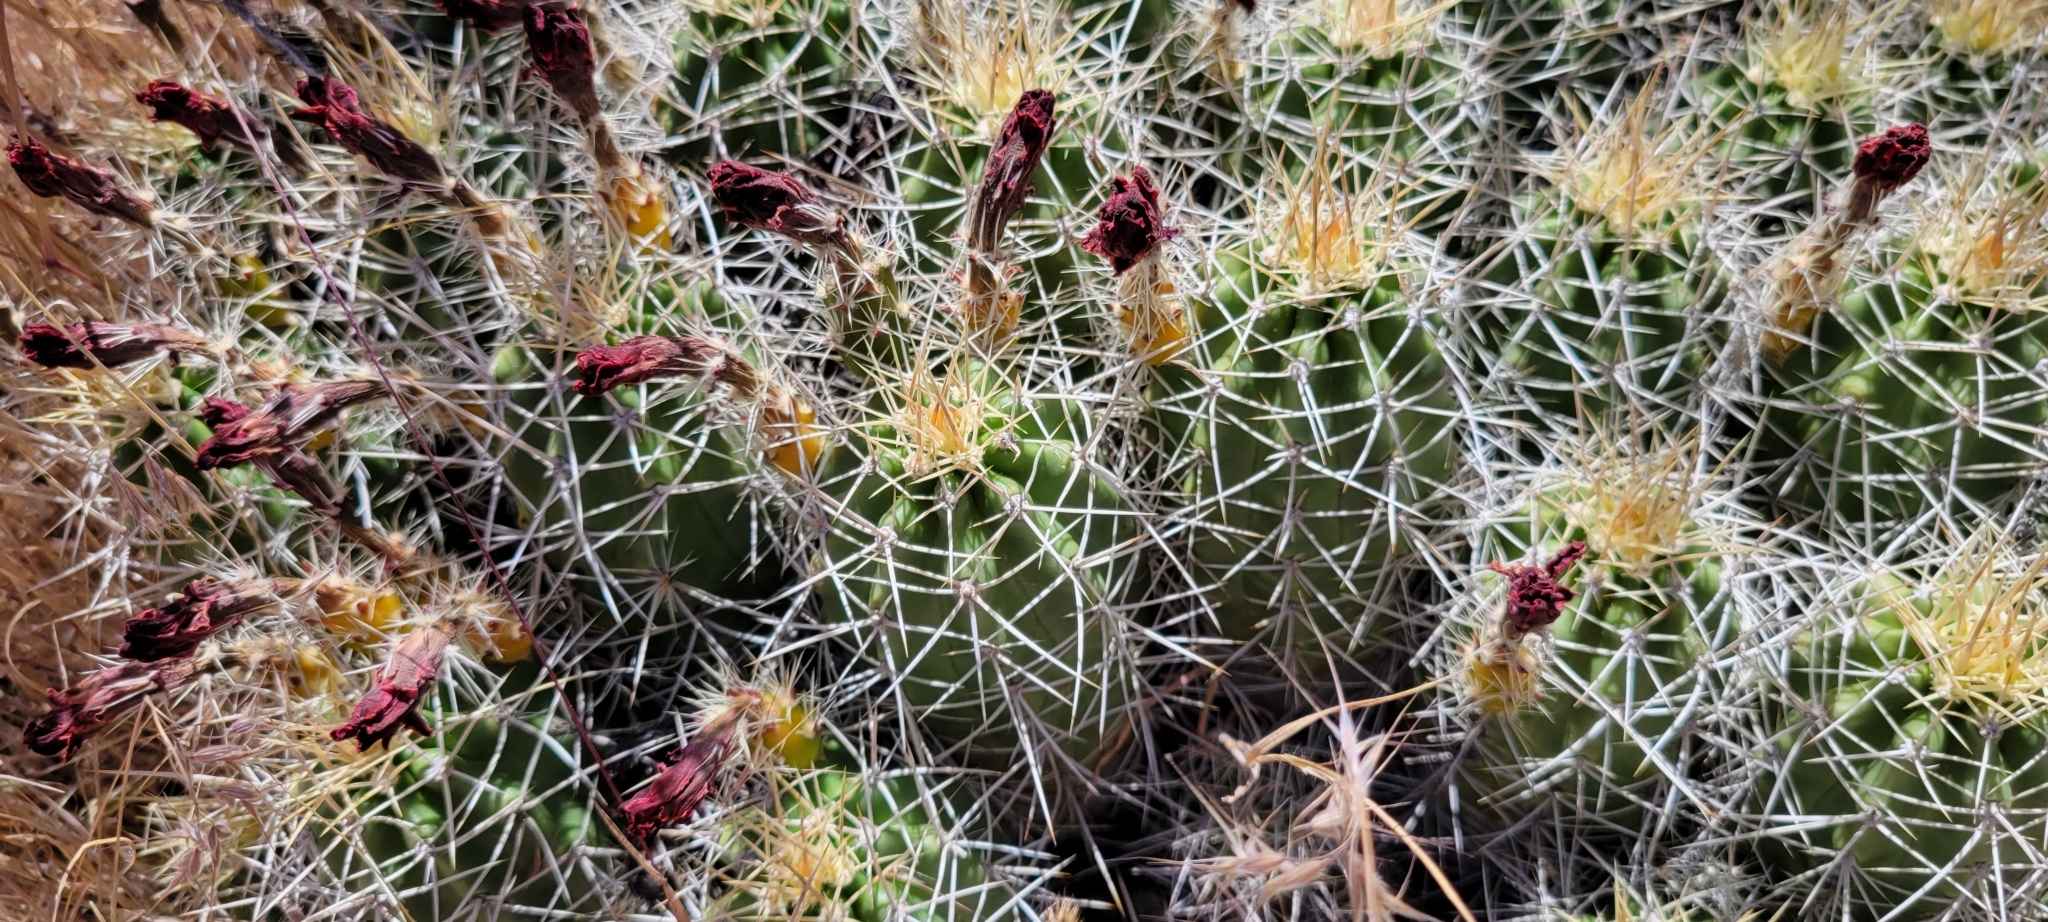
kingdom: Plantae
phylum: Tracheophyta
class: Magnoliopsida
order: Caryophyllales
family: Cactaceae
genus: Echinocereus
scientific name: Echinocereus triglochidiatus
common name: Claretcup hedgehog
